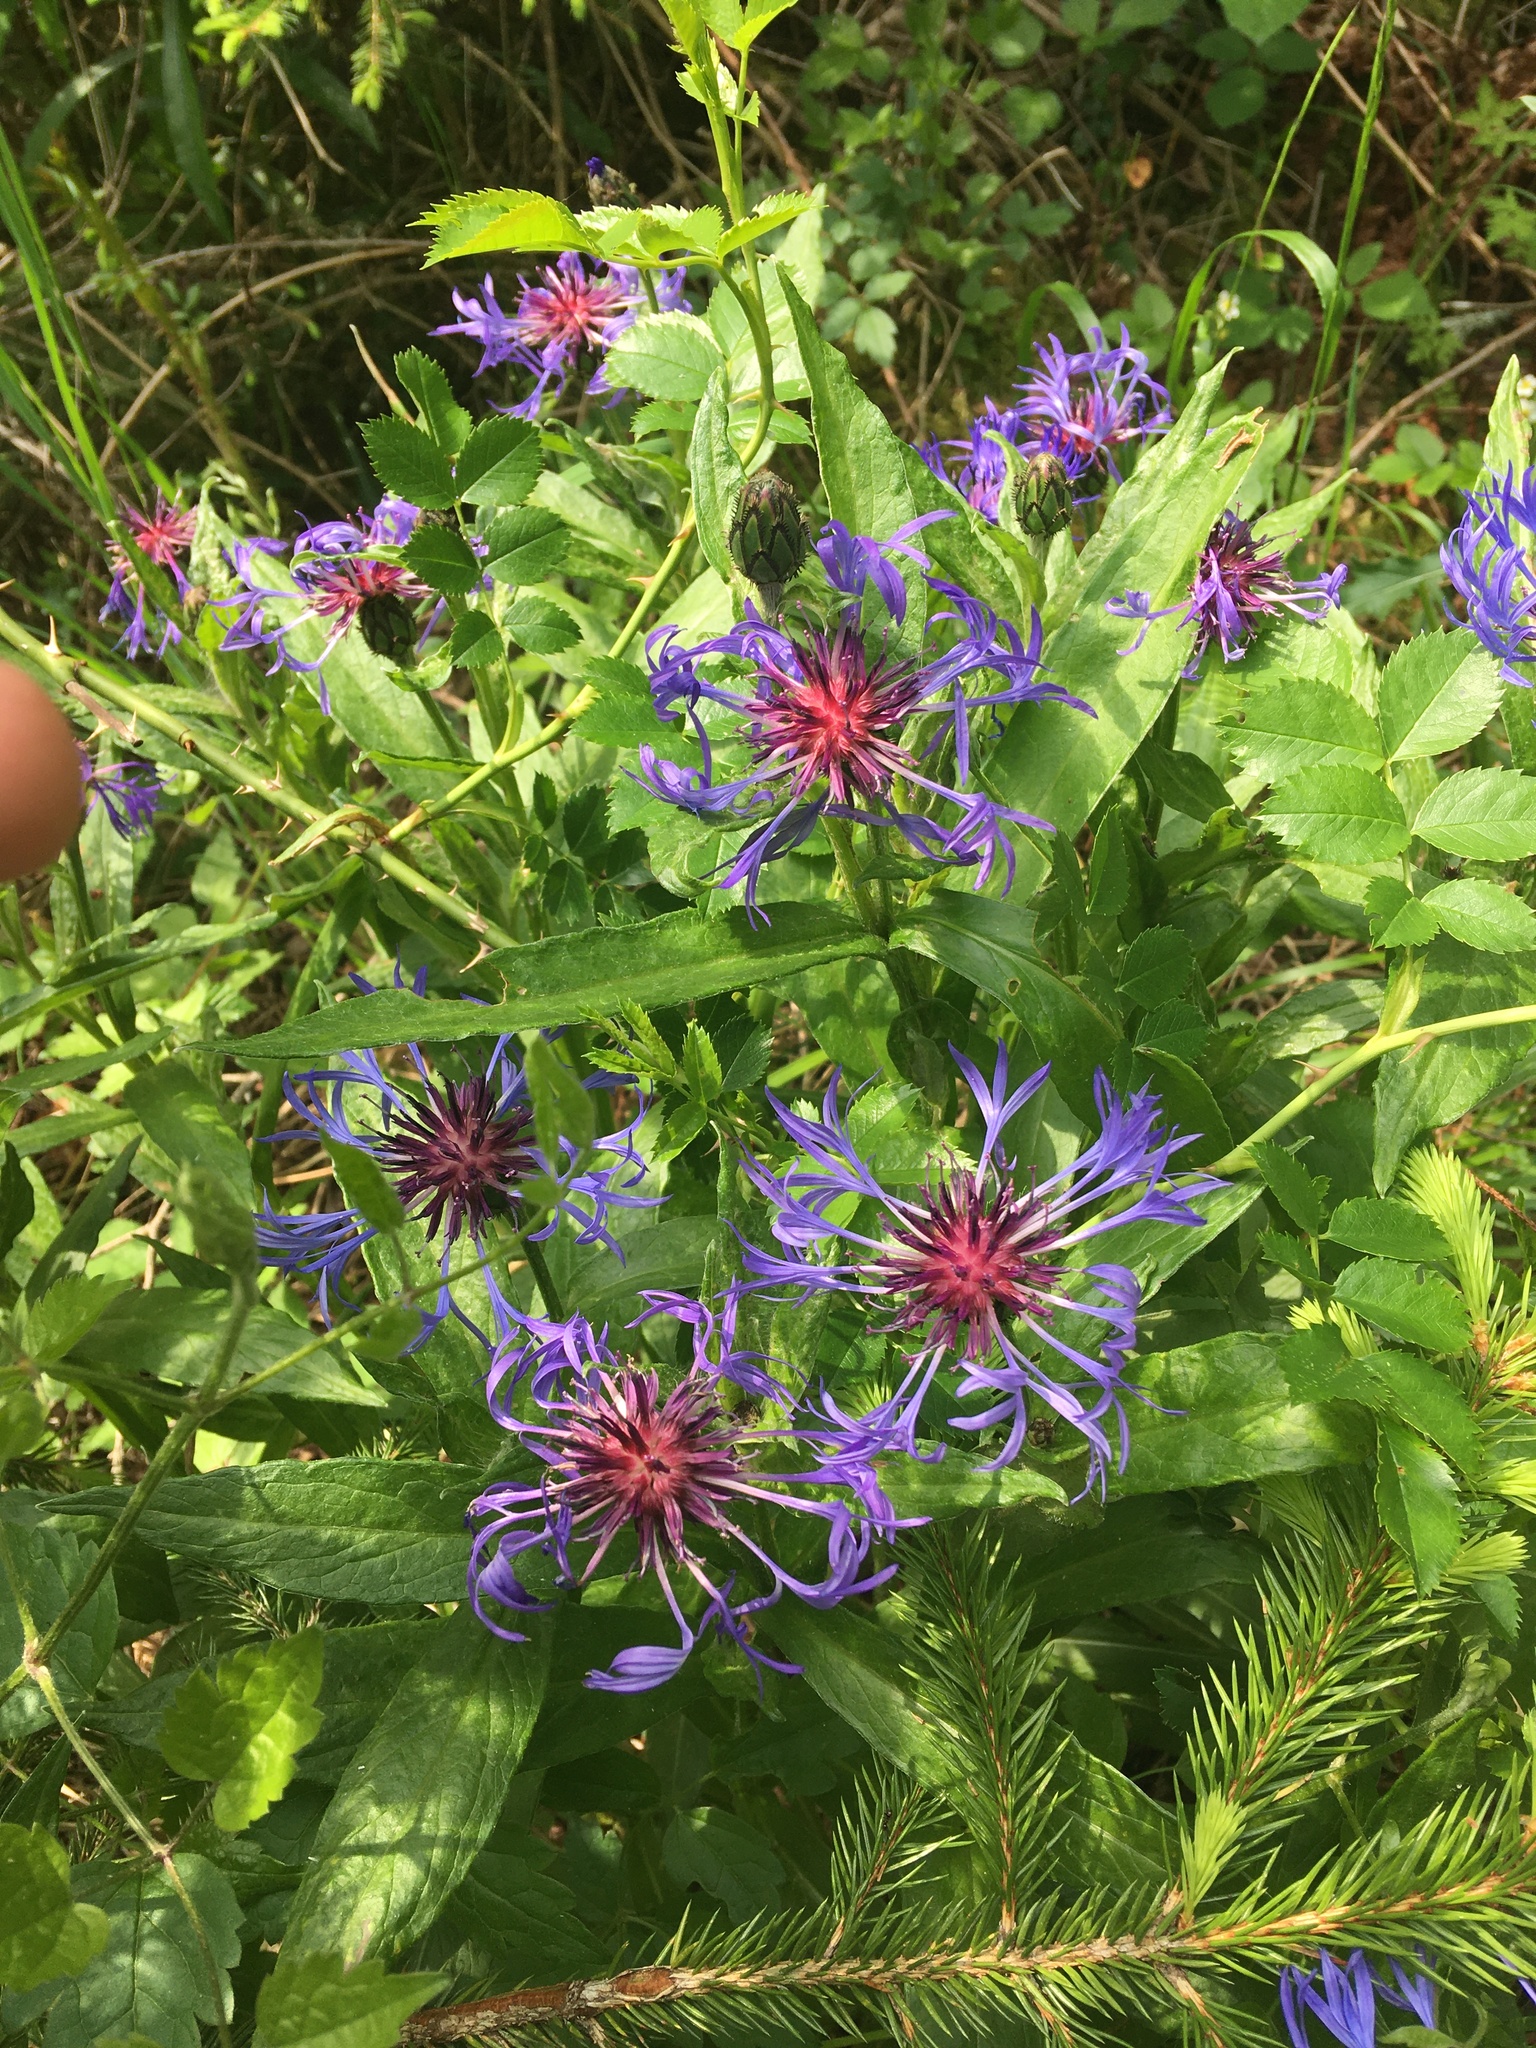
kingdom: Plantae
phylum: Tracheophyta
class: Magnoliopsida
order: Asterales
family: Asteraceae
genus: Centaurea
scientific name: Centaurea montana
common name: Perennial cornflower
